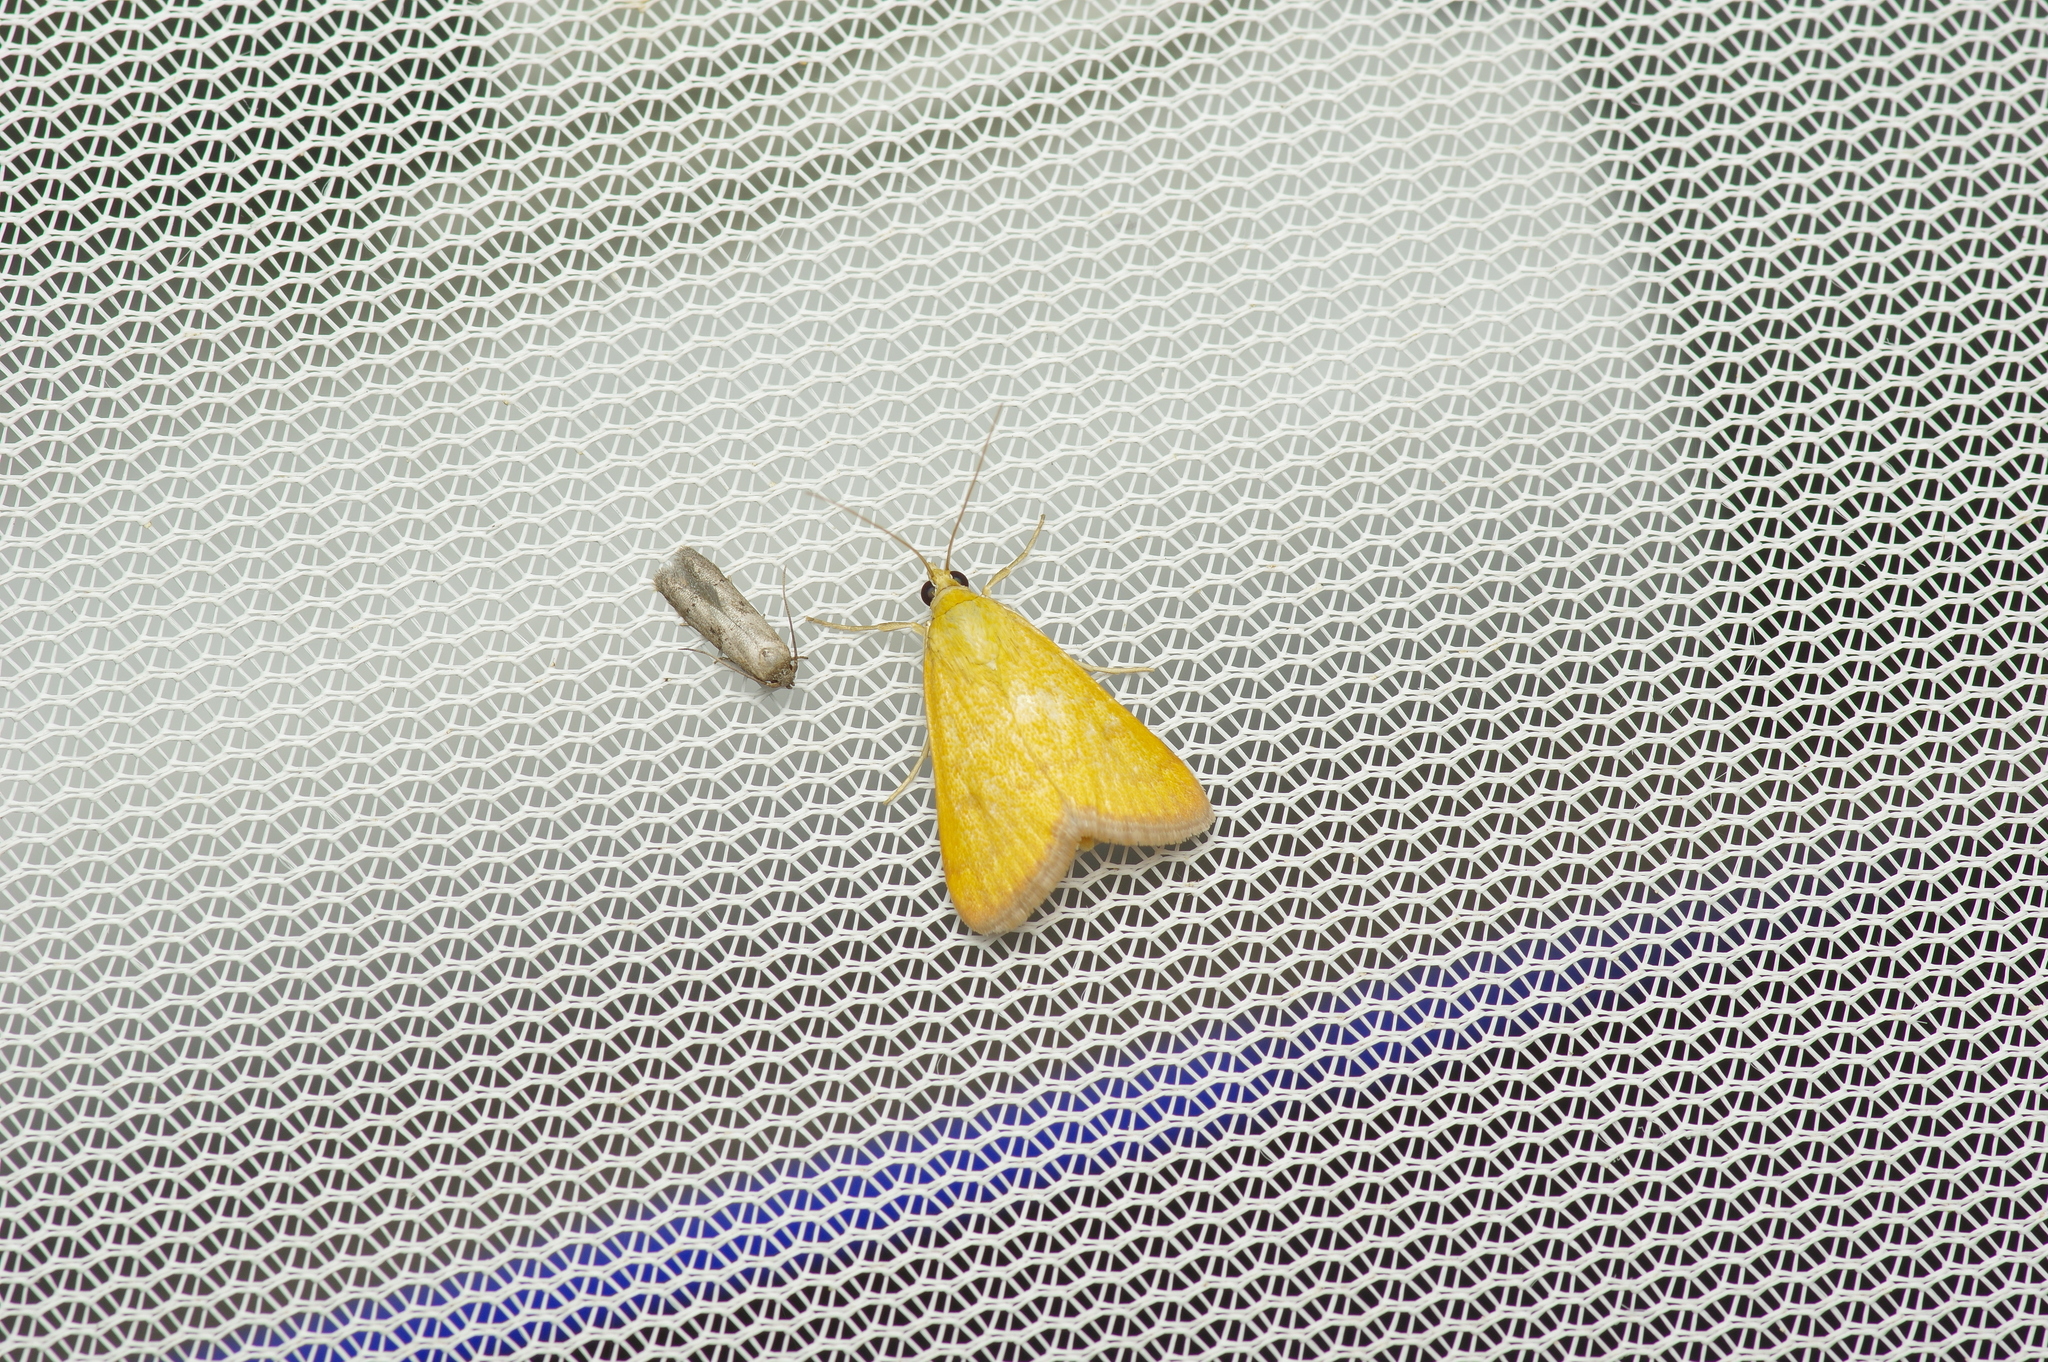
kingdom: Animalia
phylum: Arthropoda
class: Insecta
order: Lepidoptera
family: Crambidae
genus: Achyra
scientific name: Achyra rantalis
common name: Garden webworm
